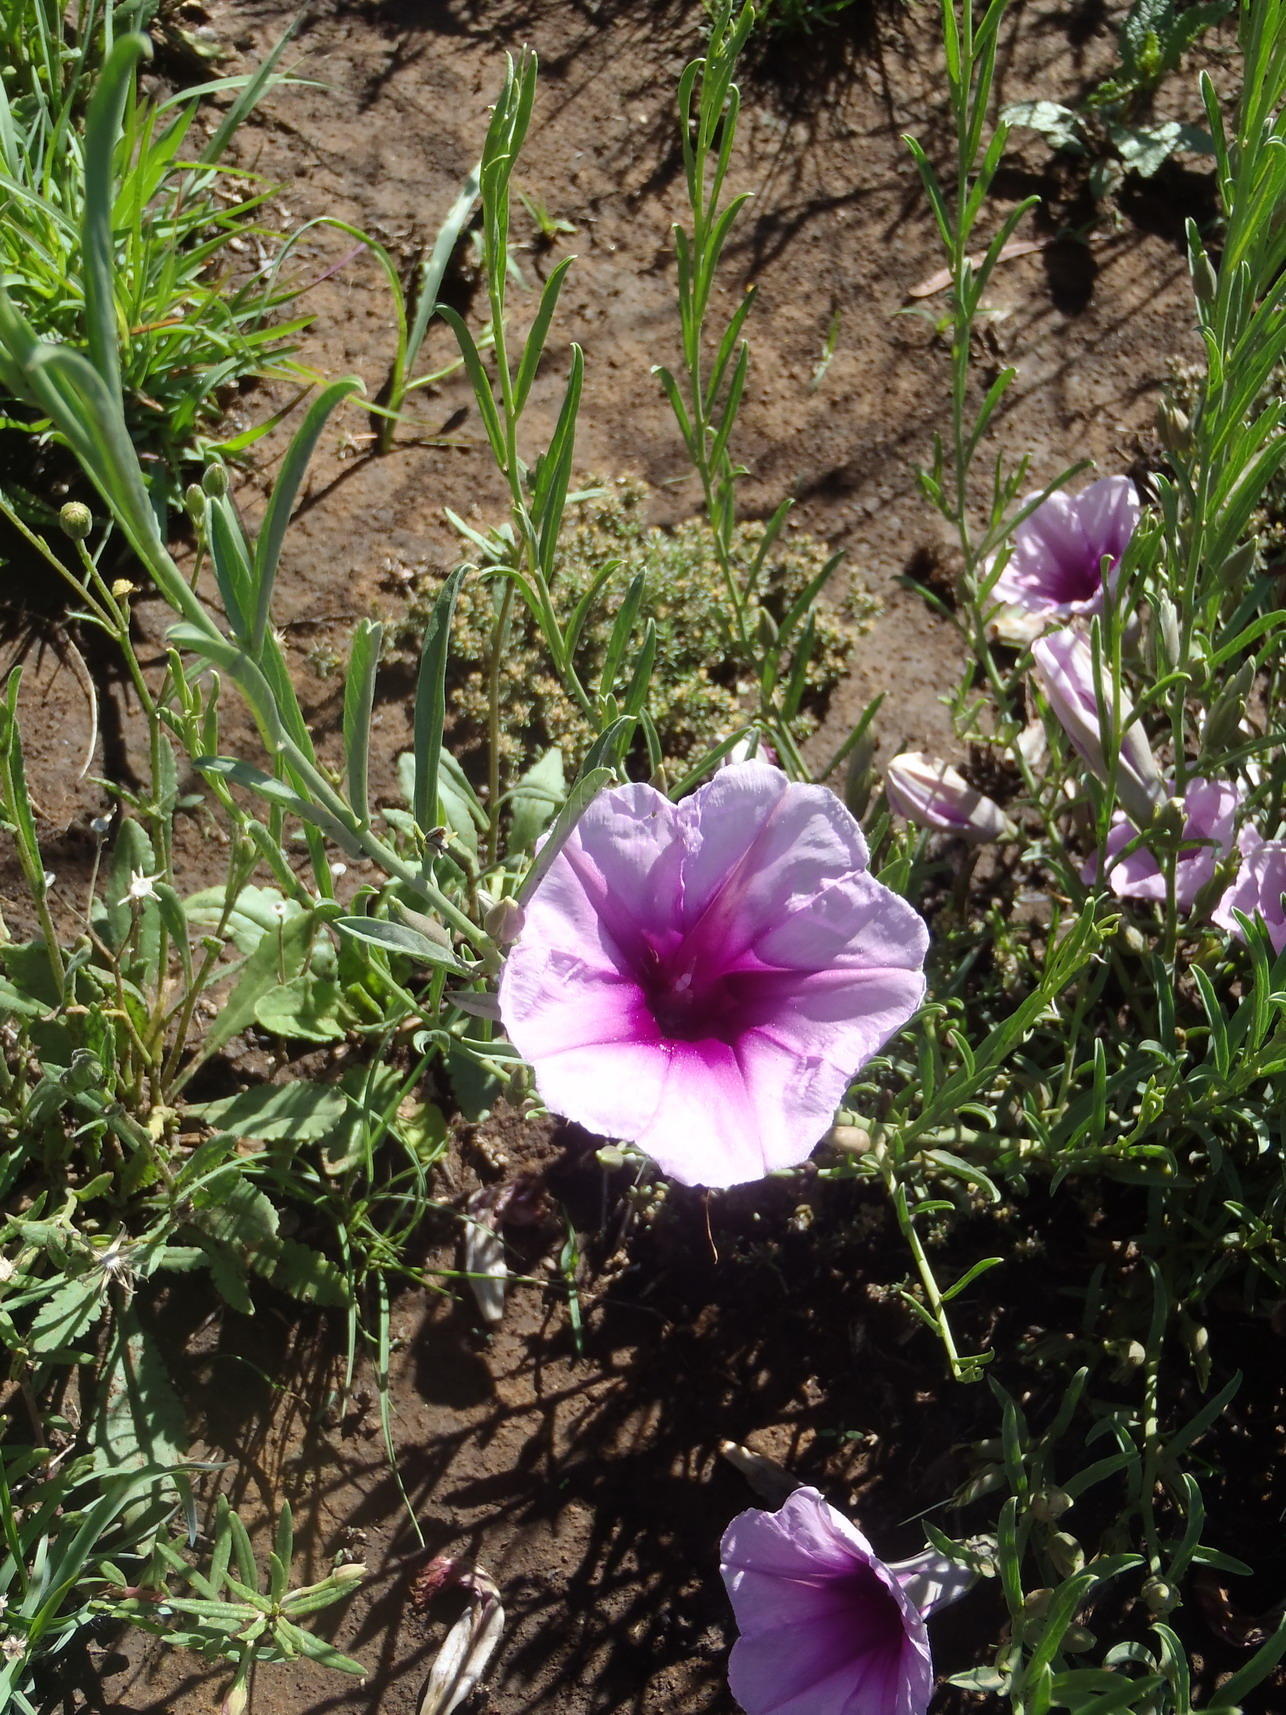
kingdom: Plantae
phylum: Tracheophyta
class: Magnoliopsida
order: Solanales
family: Convolvulaceae
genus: Ipomoea
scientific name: Ipomoea oenotheroides
